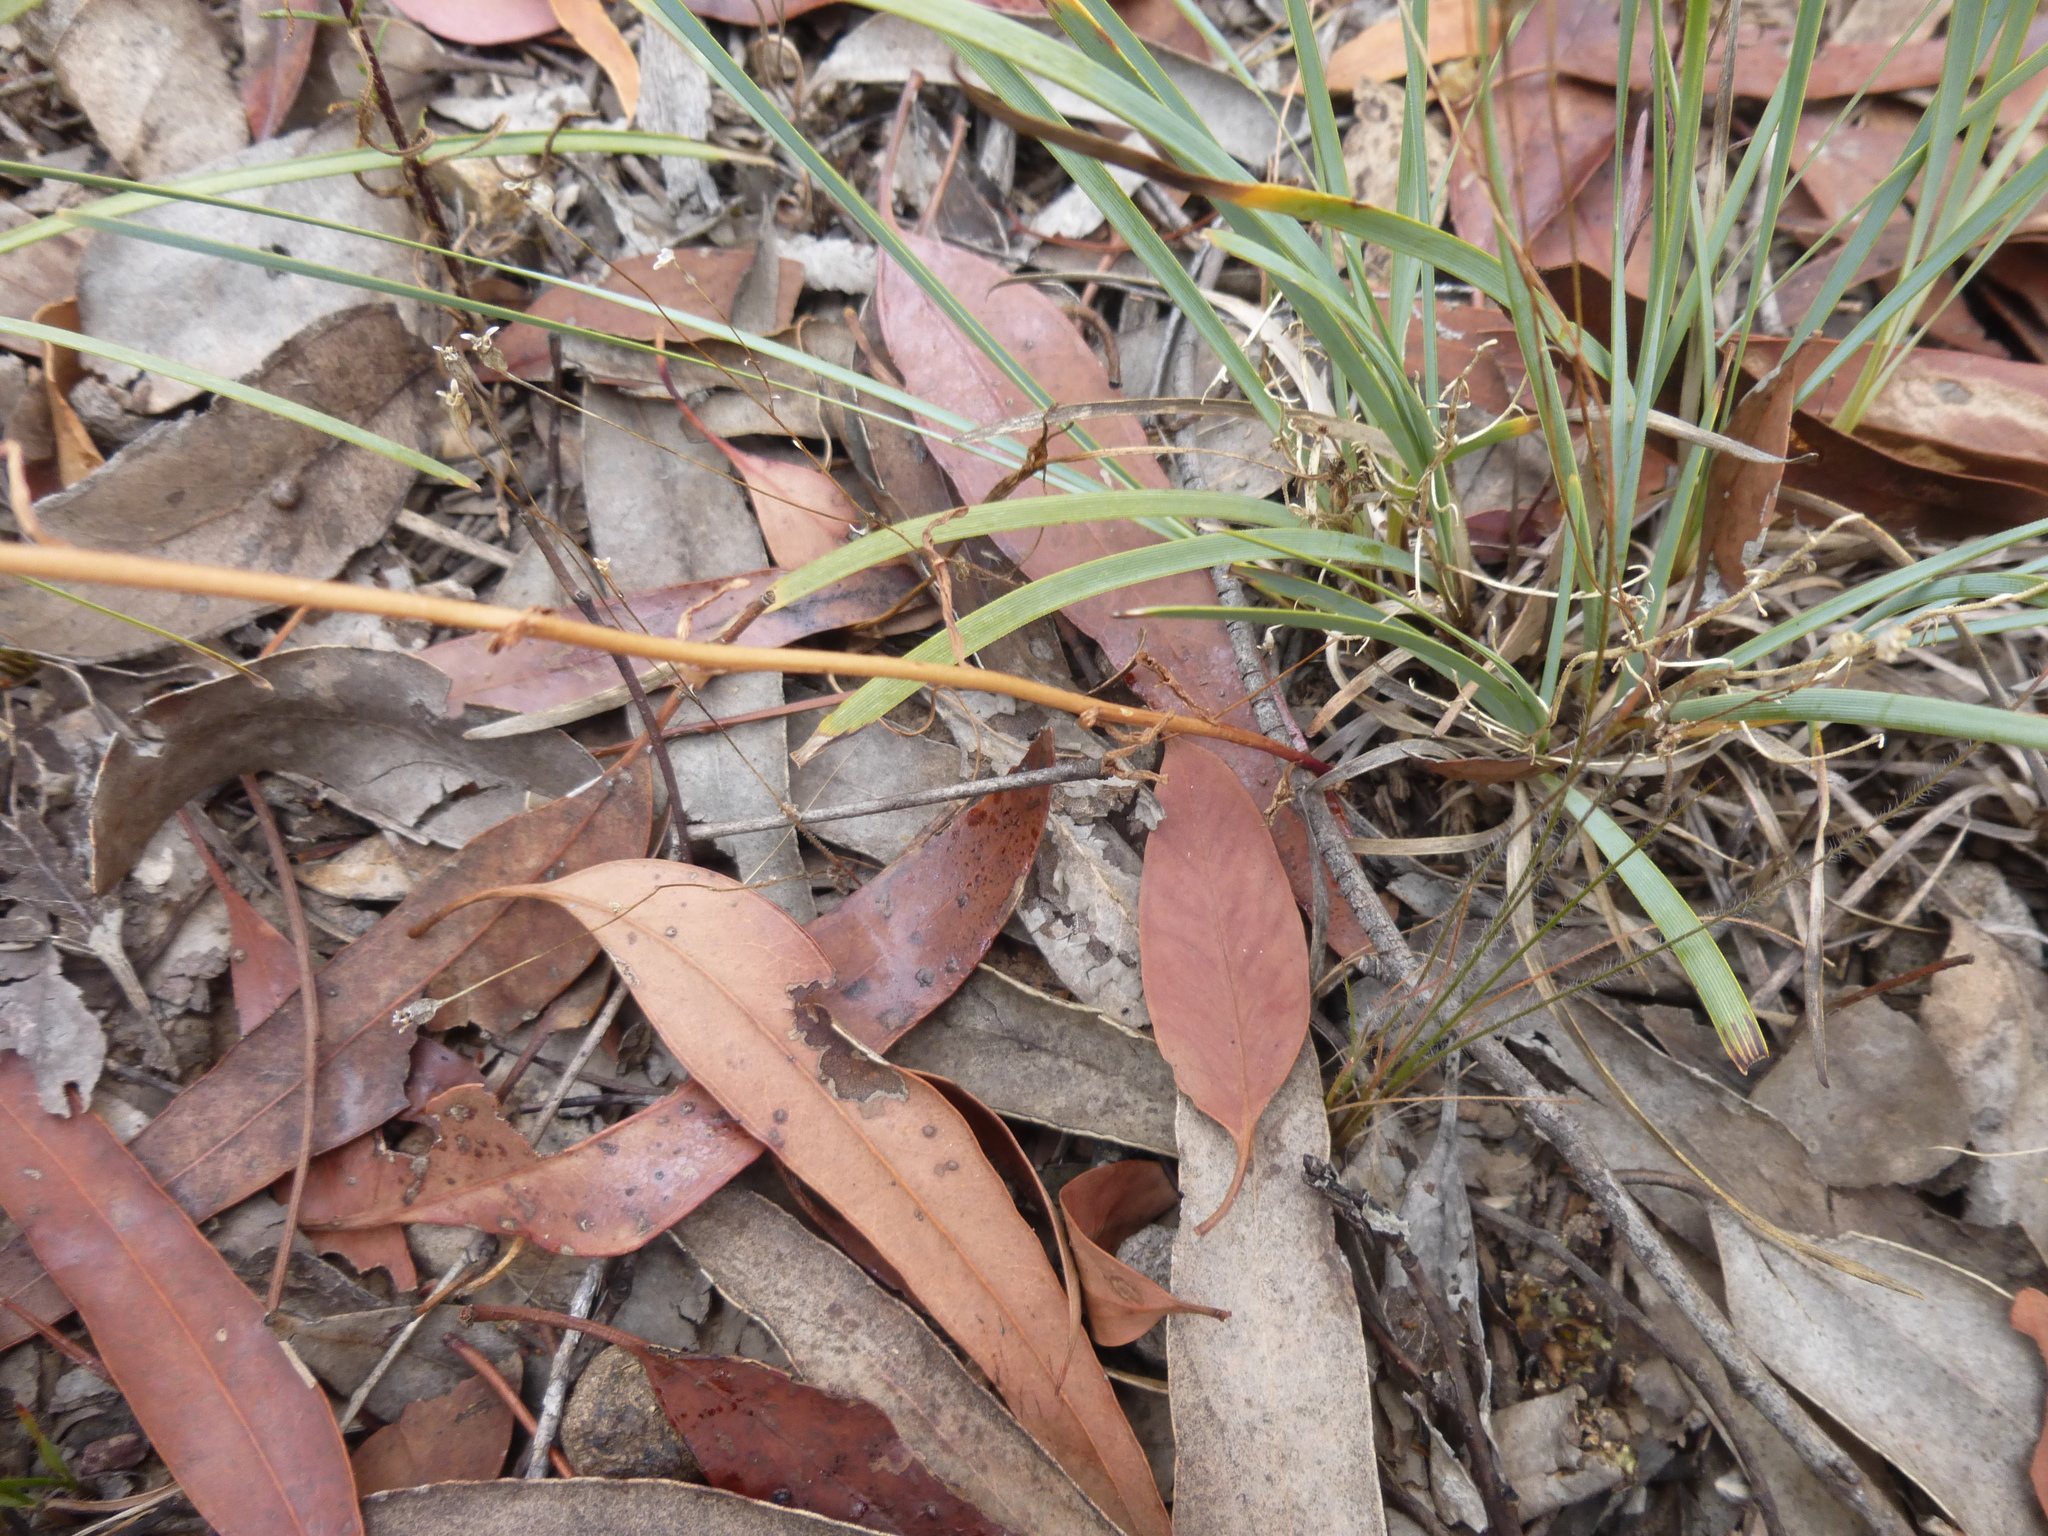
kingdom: Plantae
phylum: Tracheophyta
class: Magnoliopsida
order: Asterales
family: Campanulaceae
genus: Lobelia
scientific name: Lobelia gibbosa
